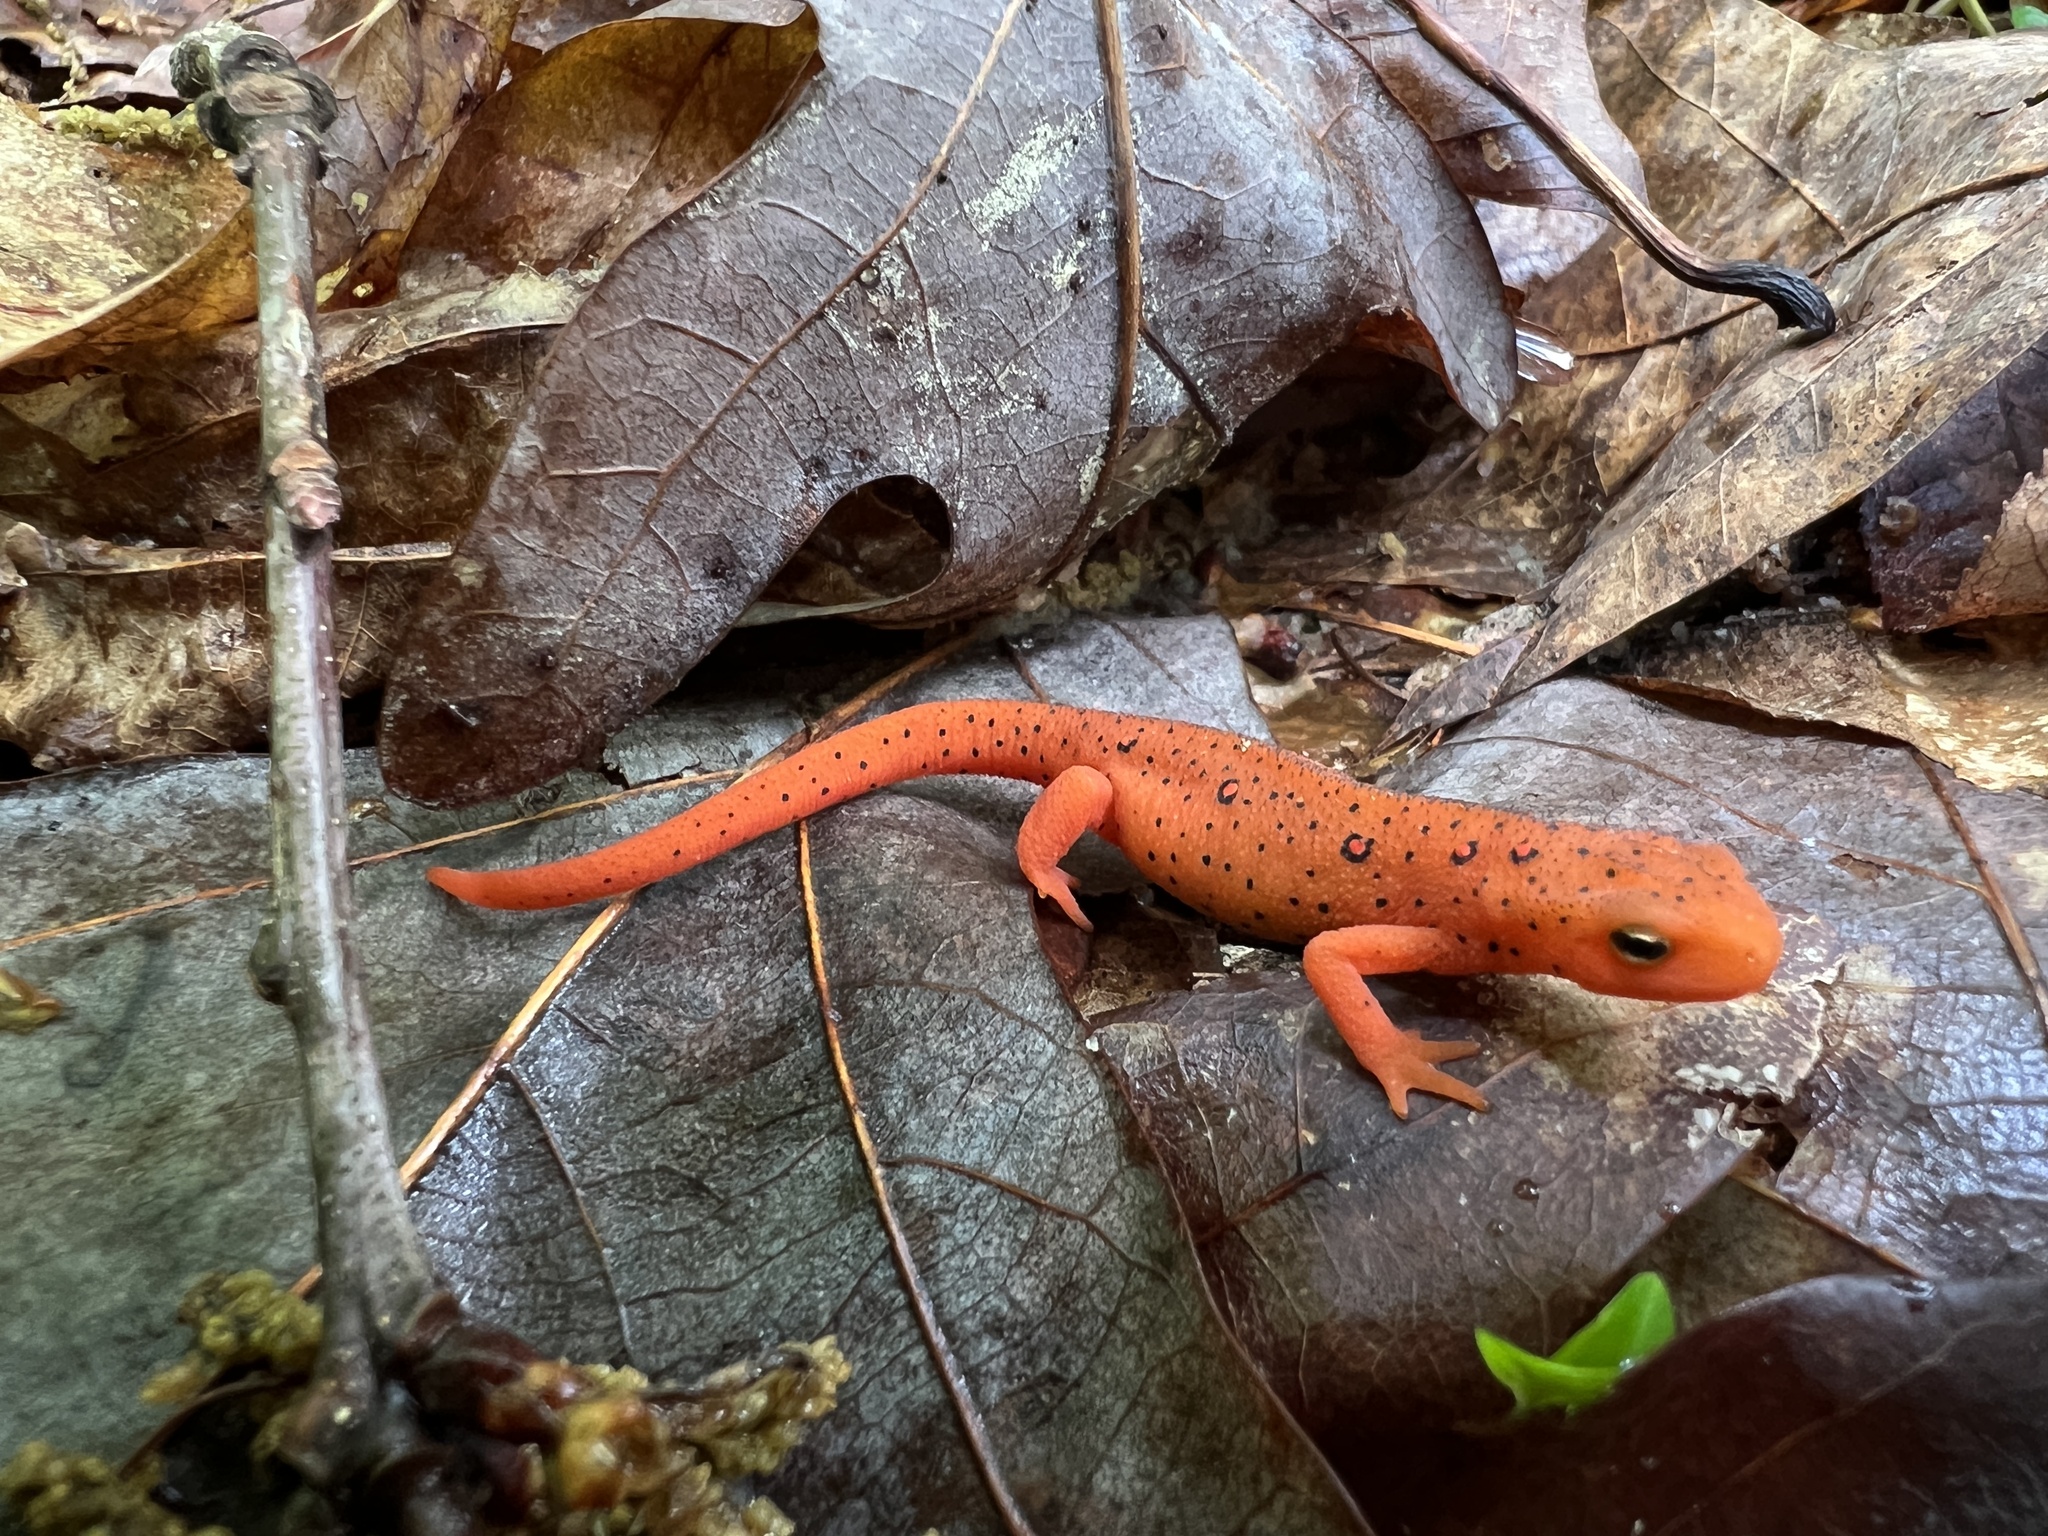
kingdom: Animalia
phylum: Chordata
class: Amphibia
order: Caudata
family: Salamandridae
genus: Notophthalmus
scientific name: Notophthalmus viridescens
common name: Eastern newt
